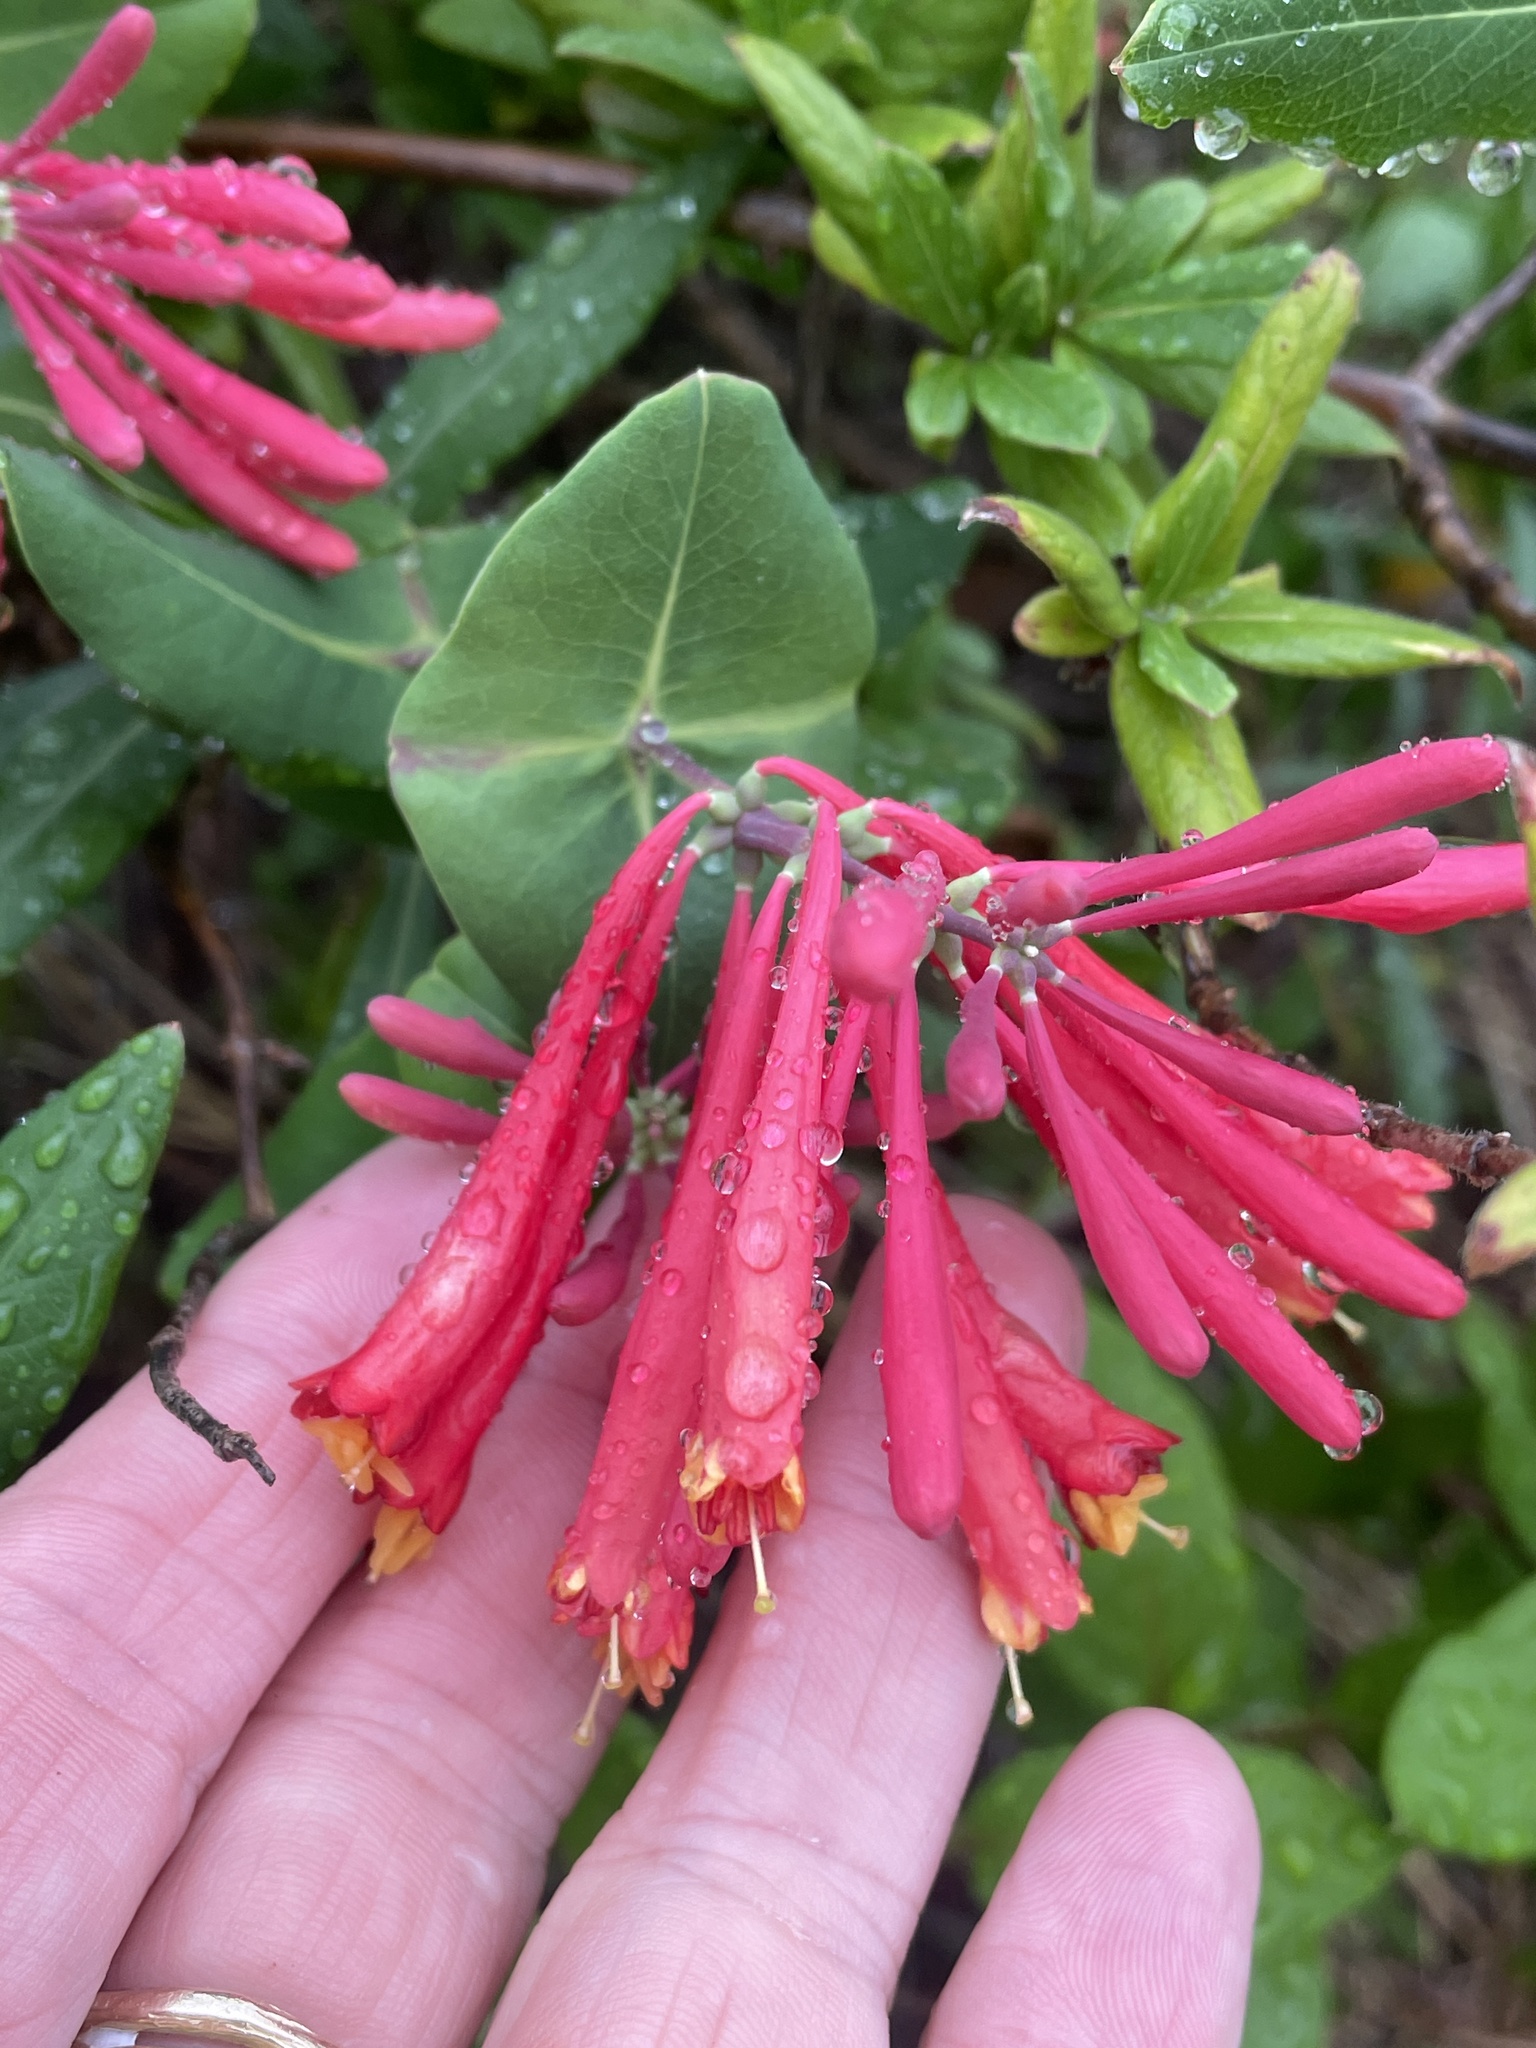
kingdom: Plantae
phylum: Tracheophyta
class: Magnoliopsida
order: Dipsacales
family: Caprifoliaceae
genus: Lonicera
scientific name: Lonicera sempervirens
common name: Coral honeysuckle
